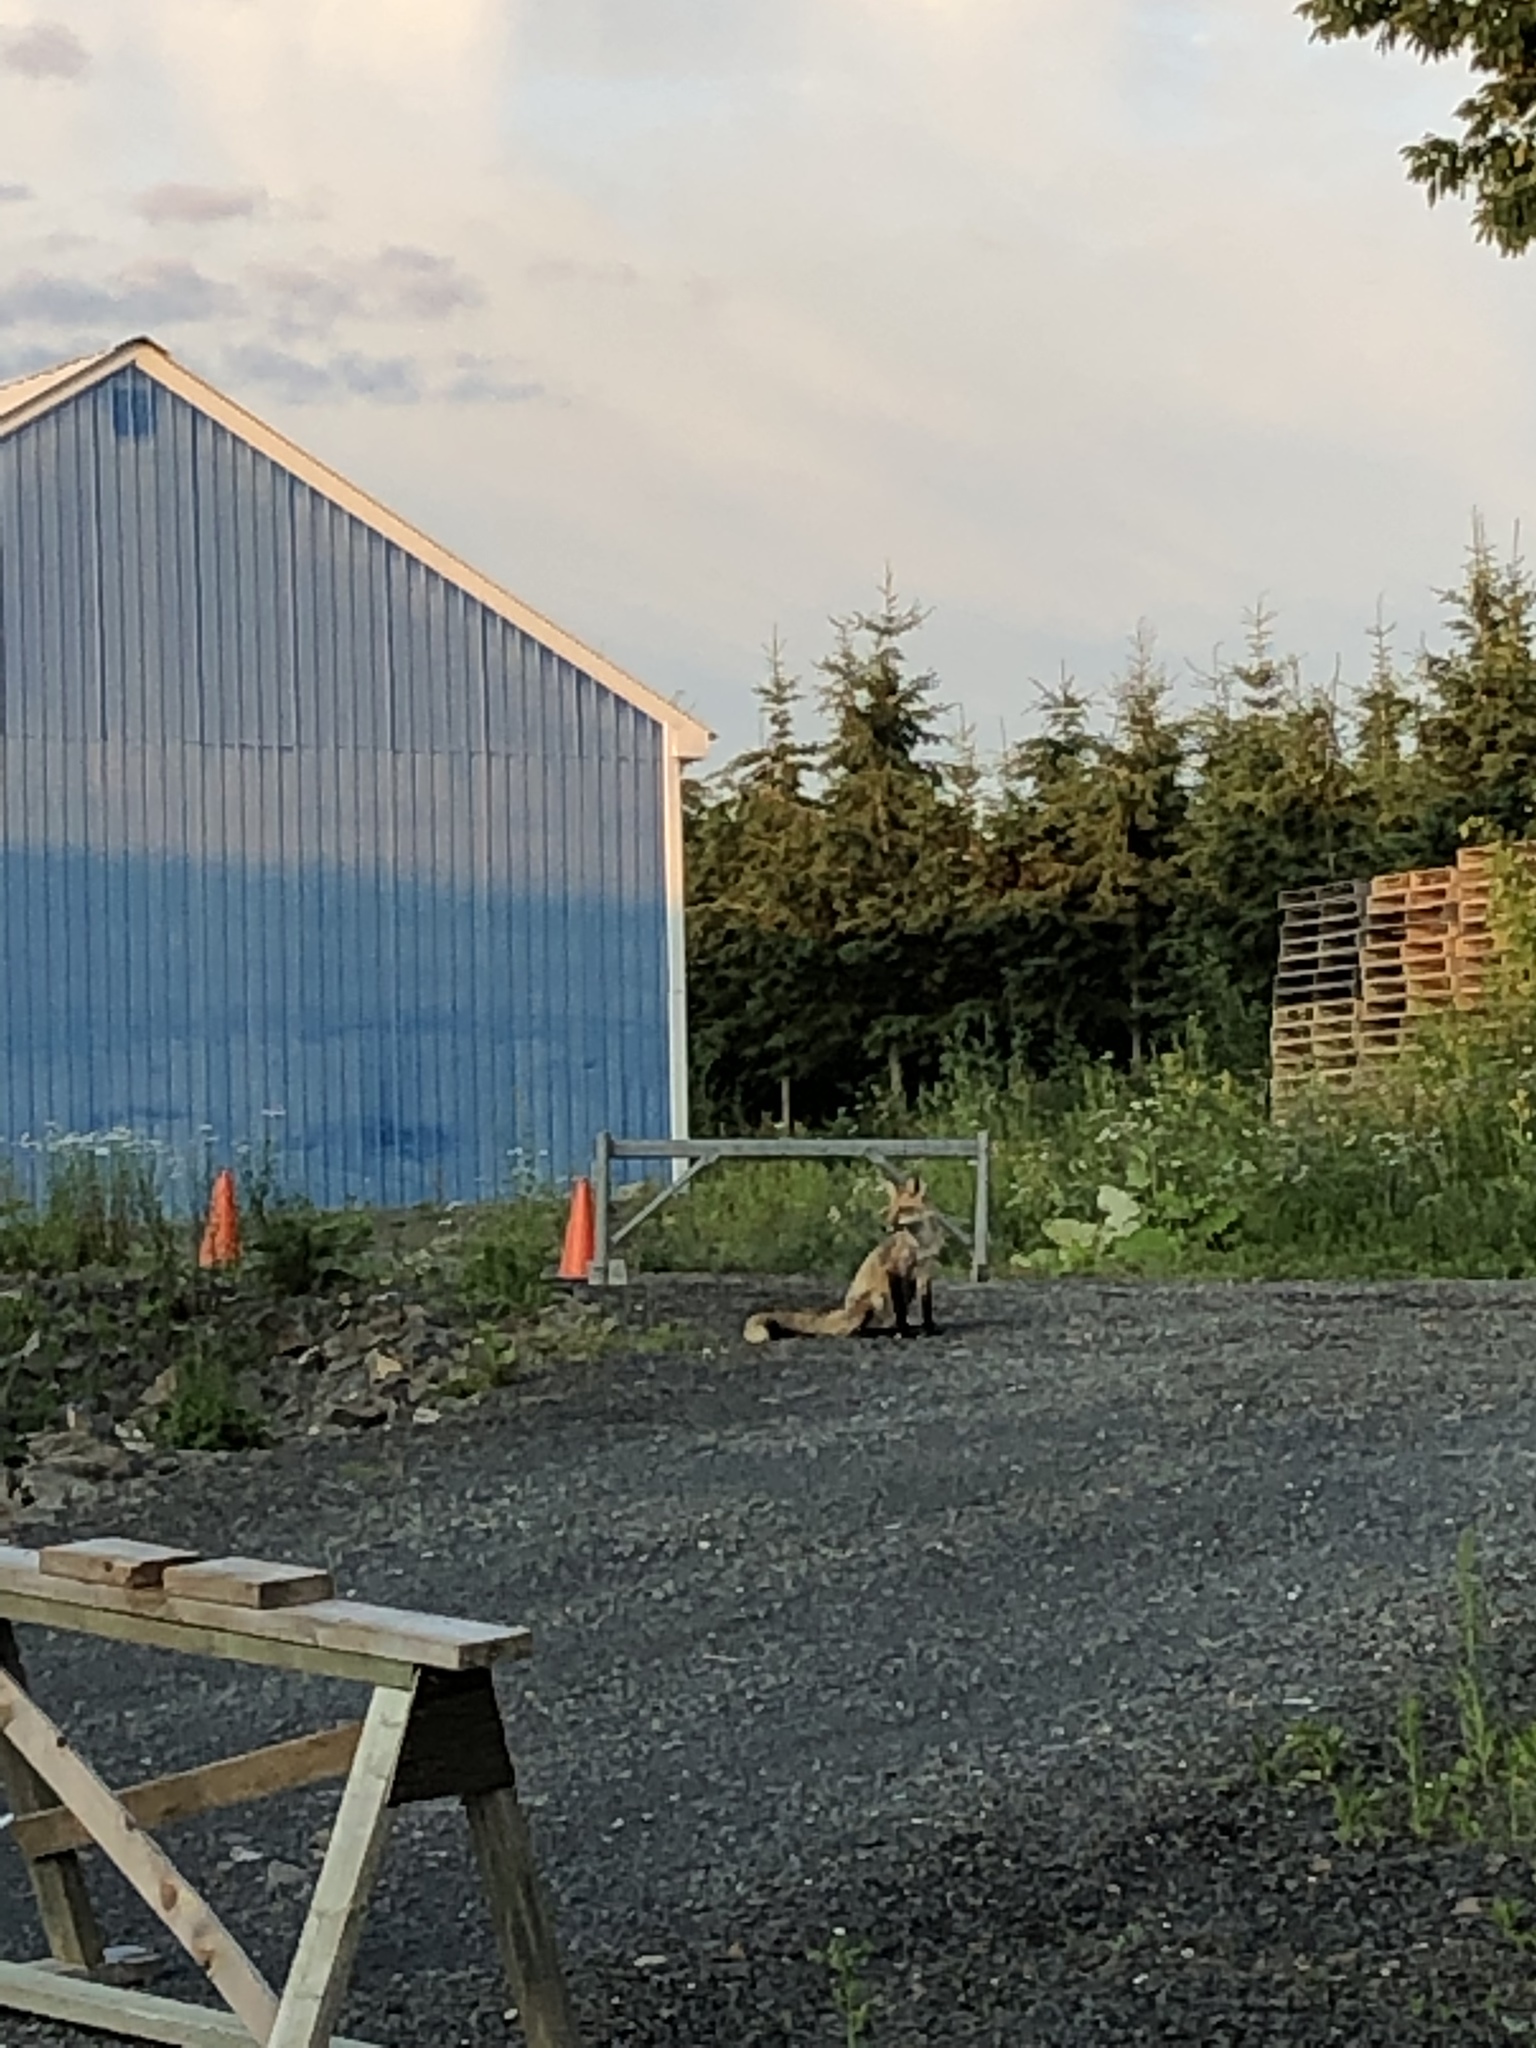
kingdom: Animalia
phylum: Chordata
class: Mammalia
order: Carnivora
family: Canidae
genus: Vulpes
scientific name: Vulpes vulpes
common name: Red fox
